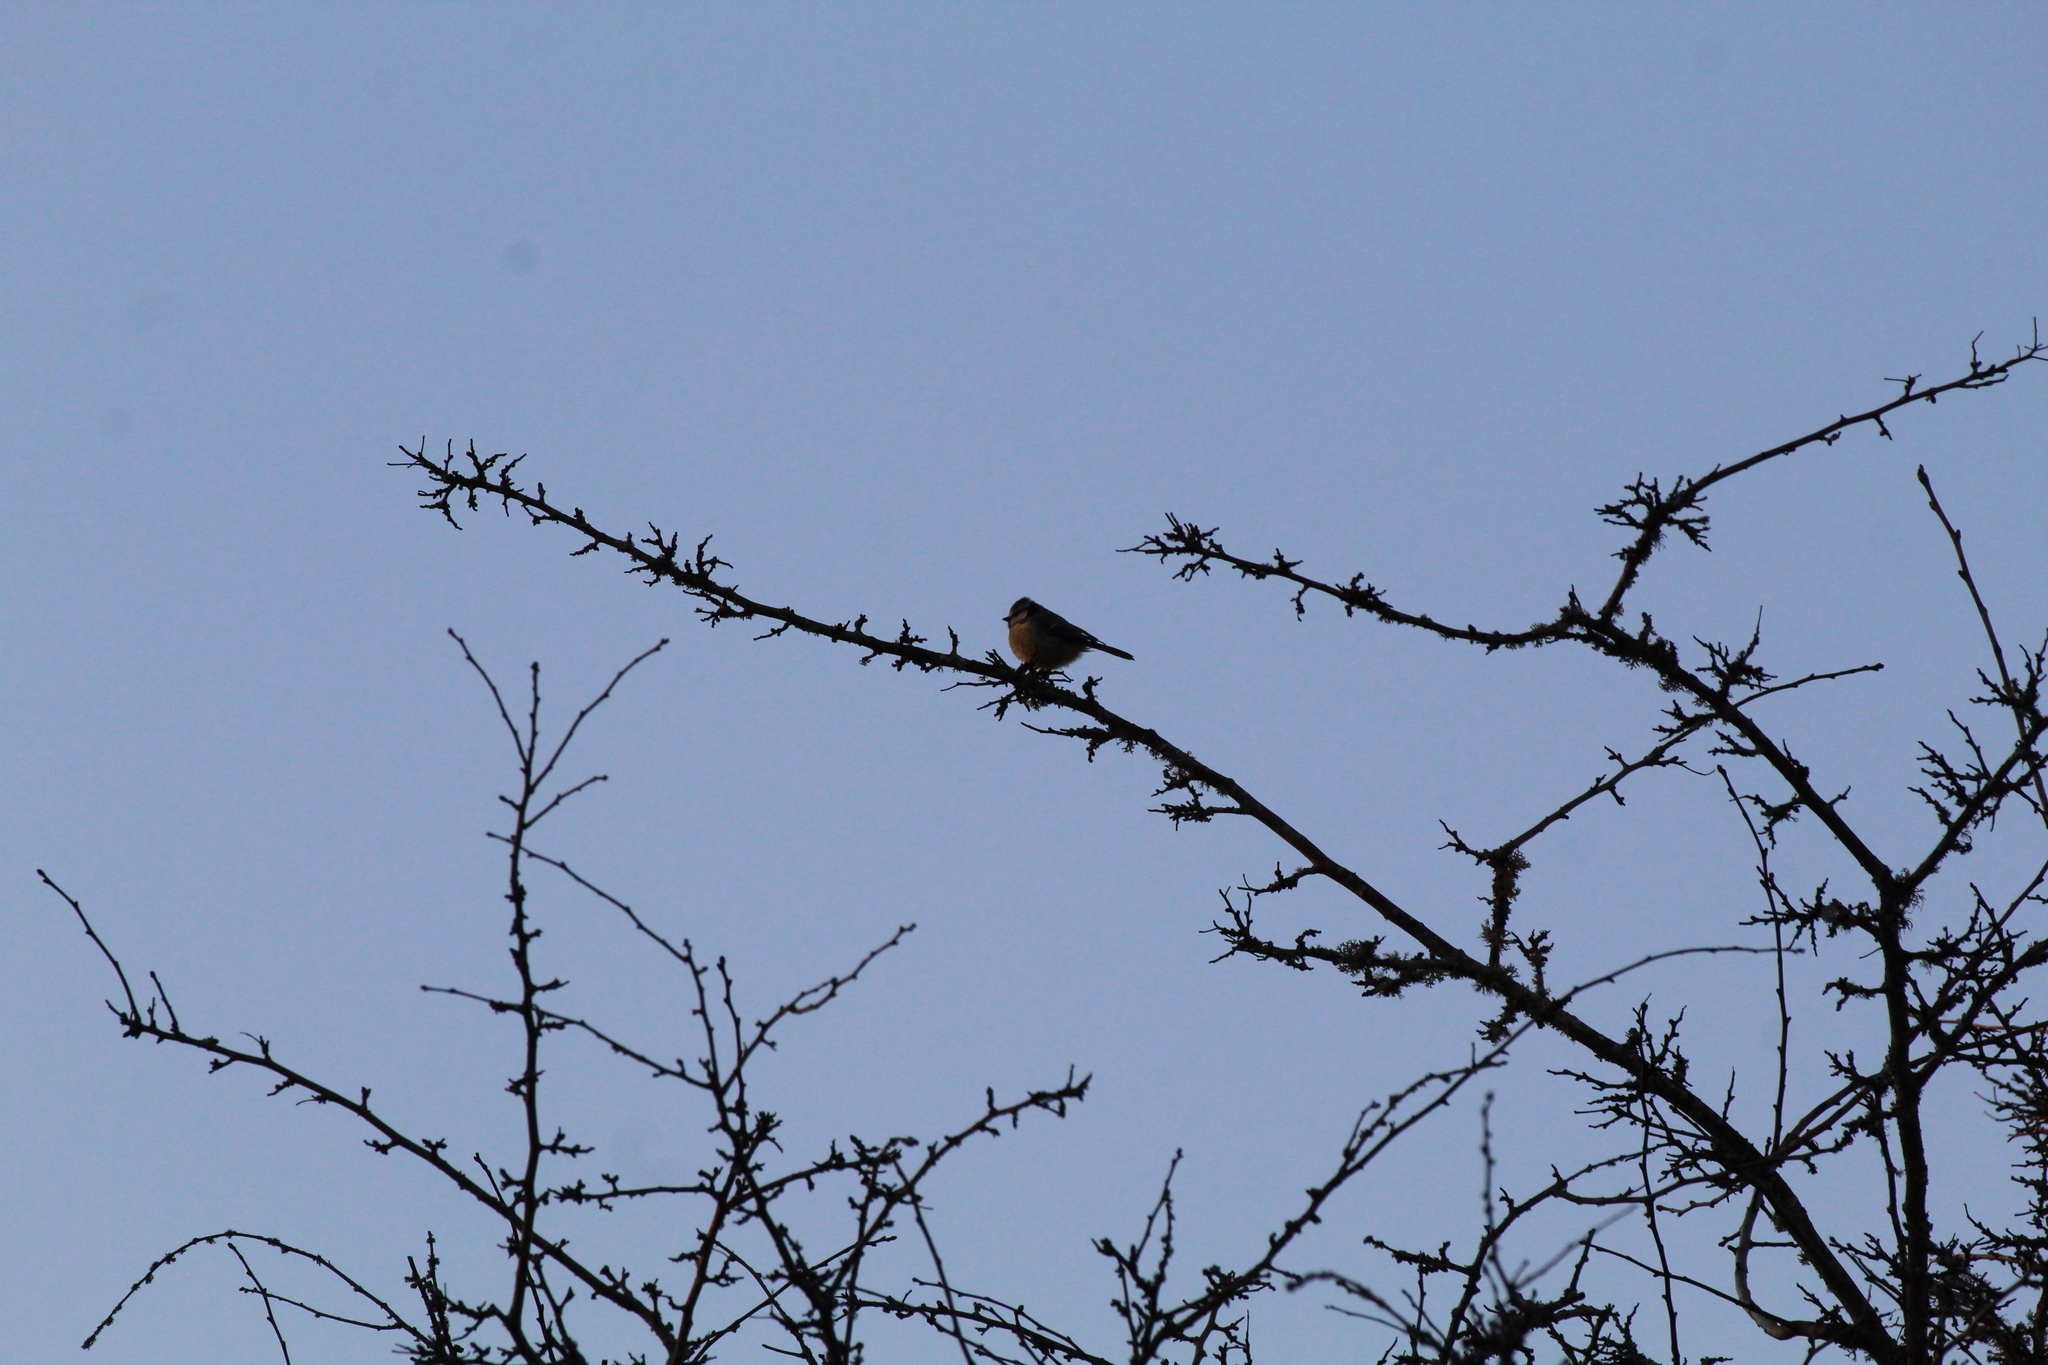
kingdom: Animalia
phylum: Chordata
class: Aves
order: Passeriformes
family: Paridae
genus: Cyanistes
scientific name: Cyanistes caeruleus
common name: Eurasian blue tit
